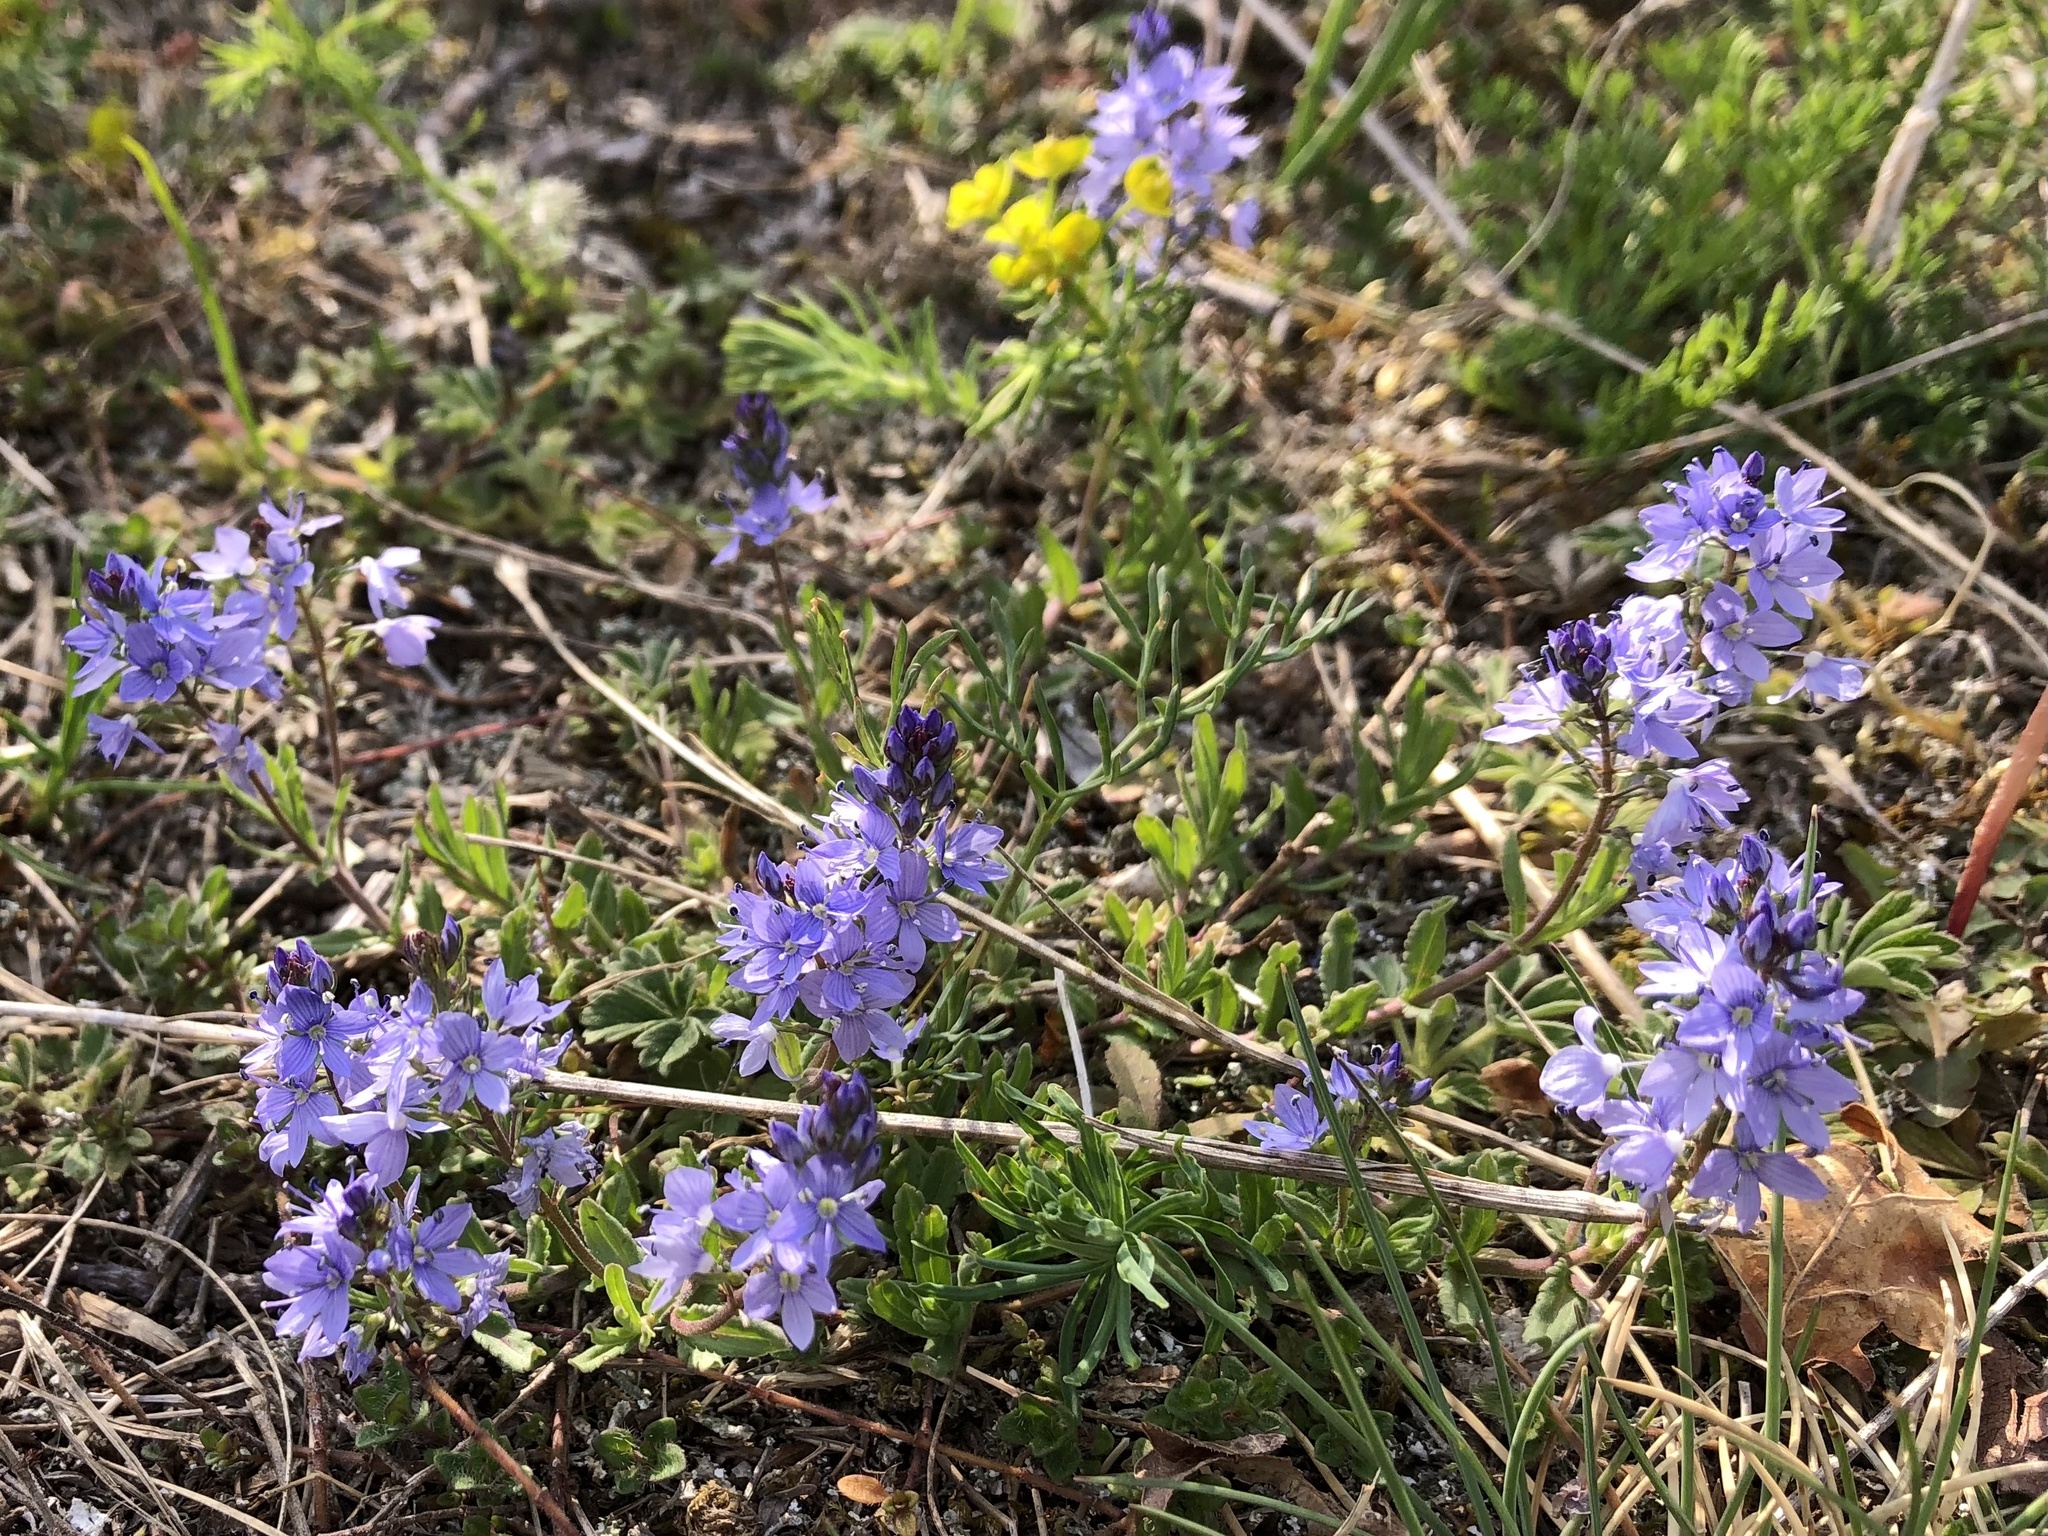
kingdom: Plantae
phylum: Tracheophyta
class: Magnoliopsida
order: Lamiales
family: Plantaginaceae
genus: Veronica
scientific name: Veronica prostrata
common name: Prostrate speedwell
